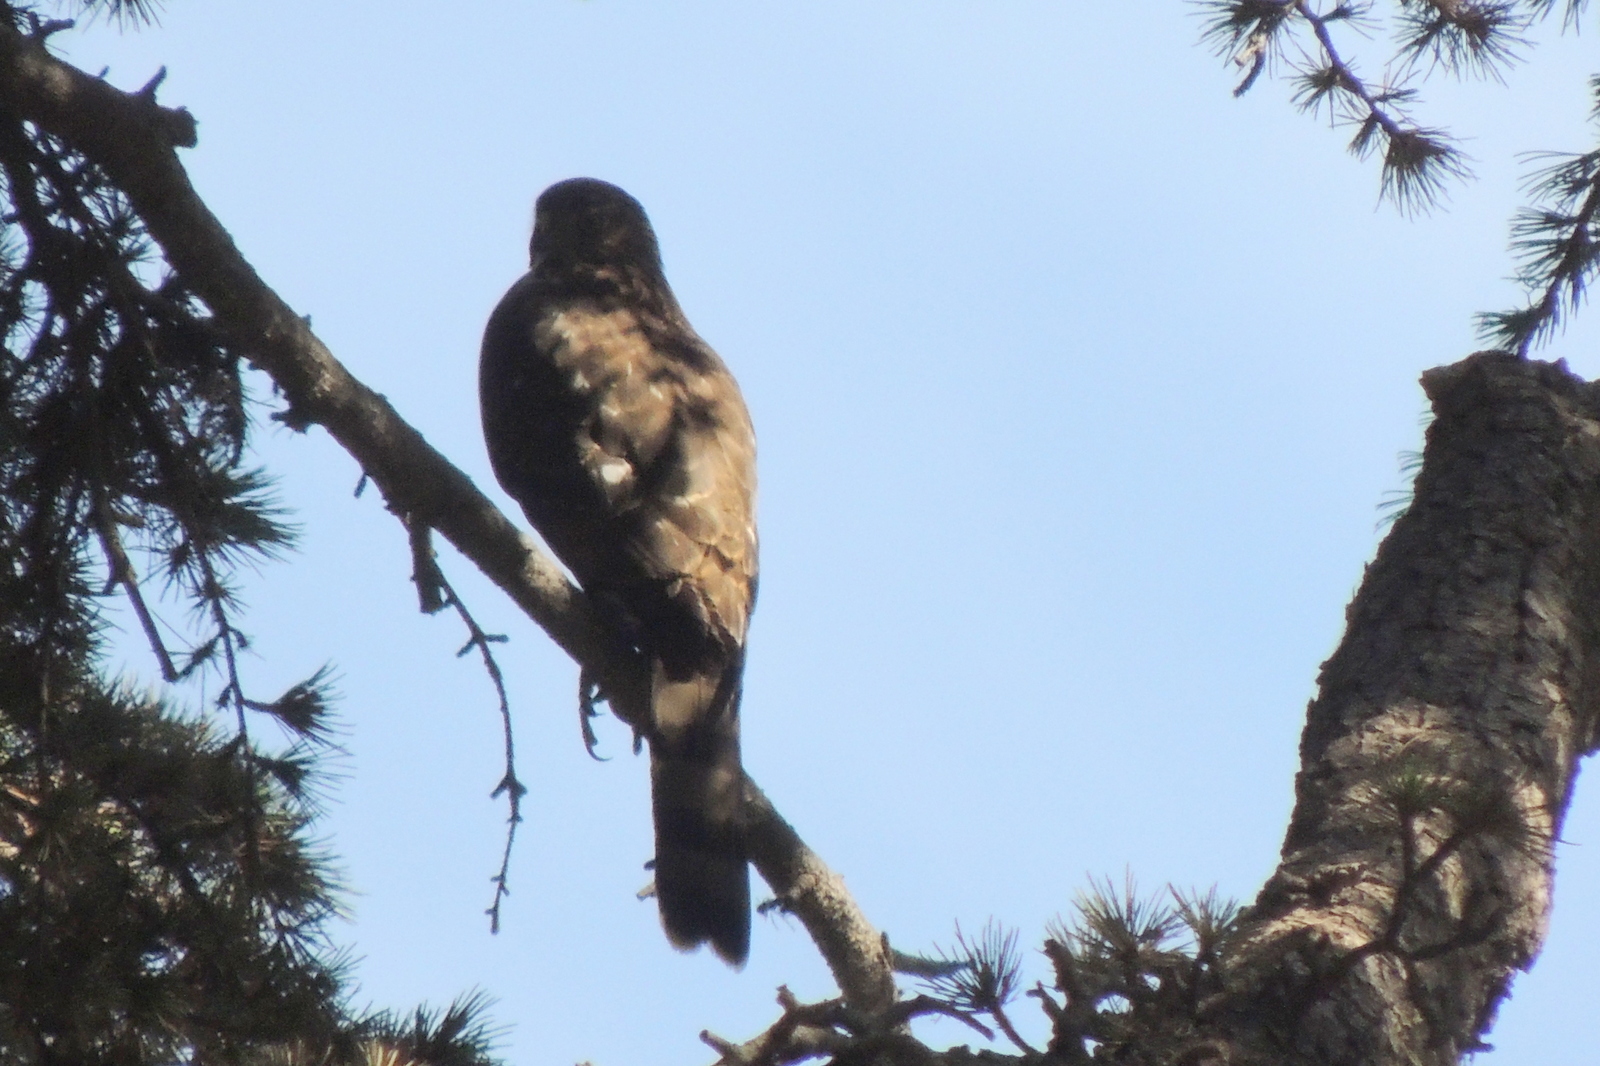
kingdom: Animalia
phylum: Chordata
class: Aves
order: Accipitriformes
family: Accipitridae
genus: Accipiter
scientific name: Accipiter cooperii
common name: Cooper's hawk
